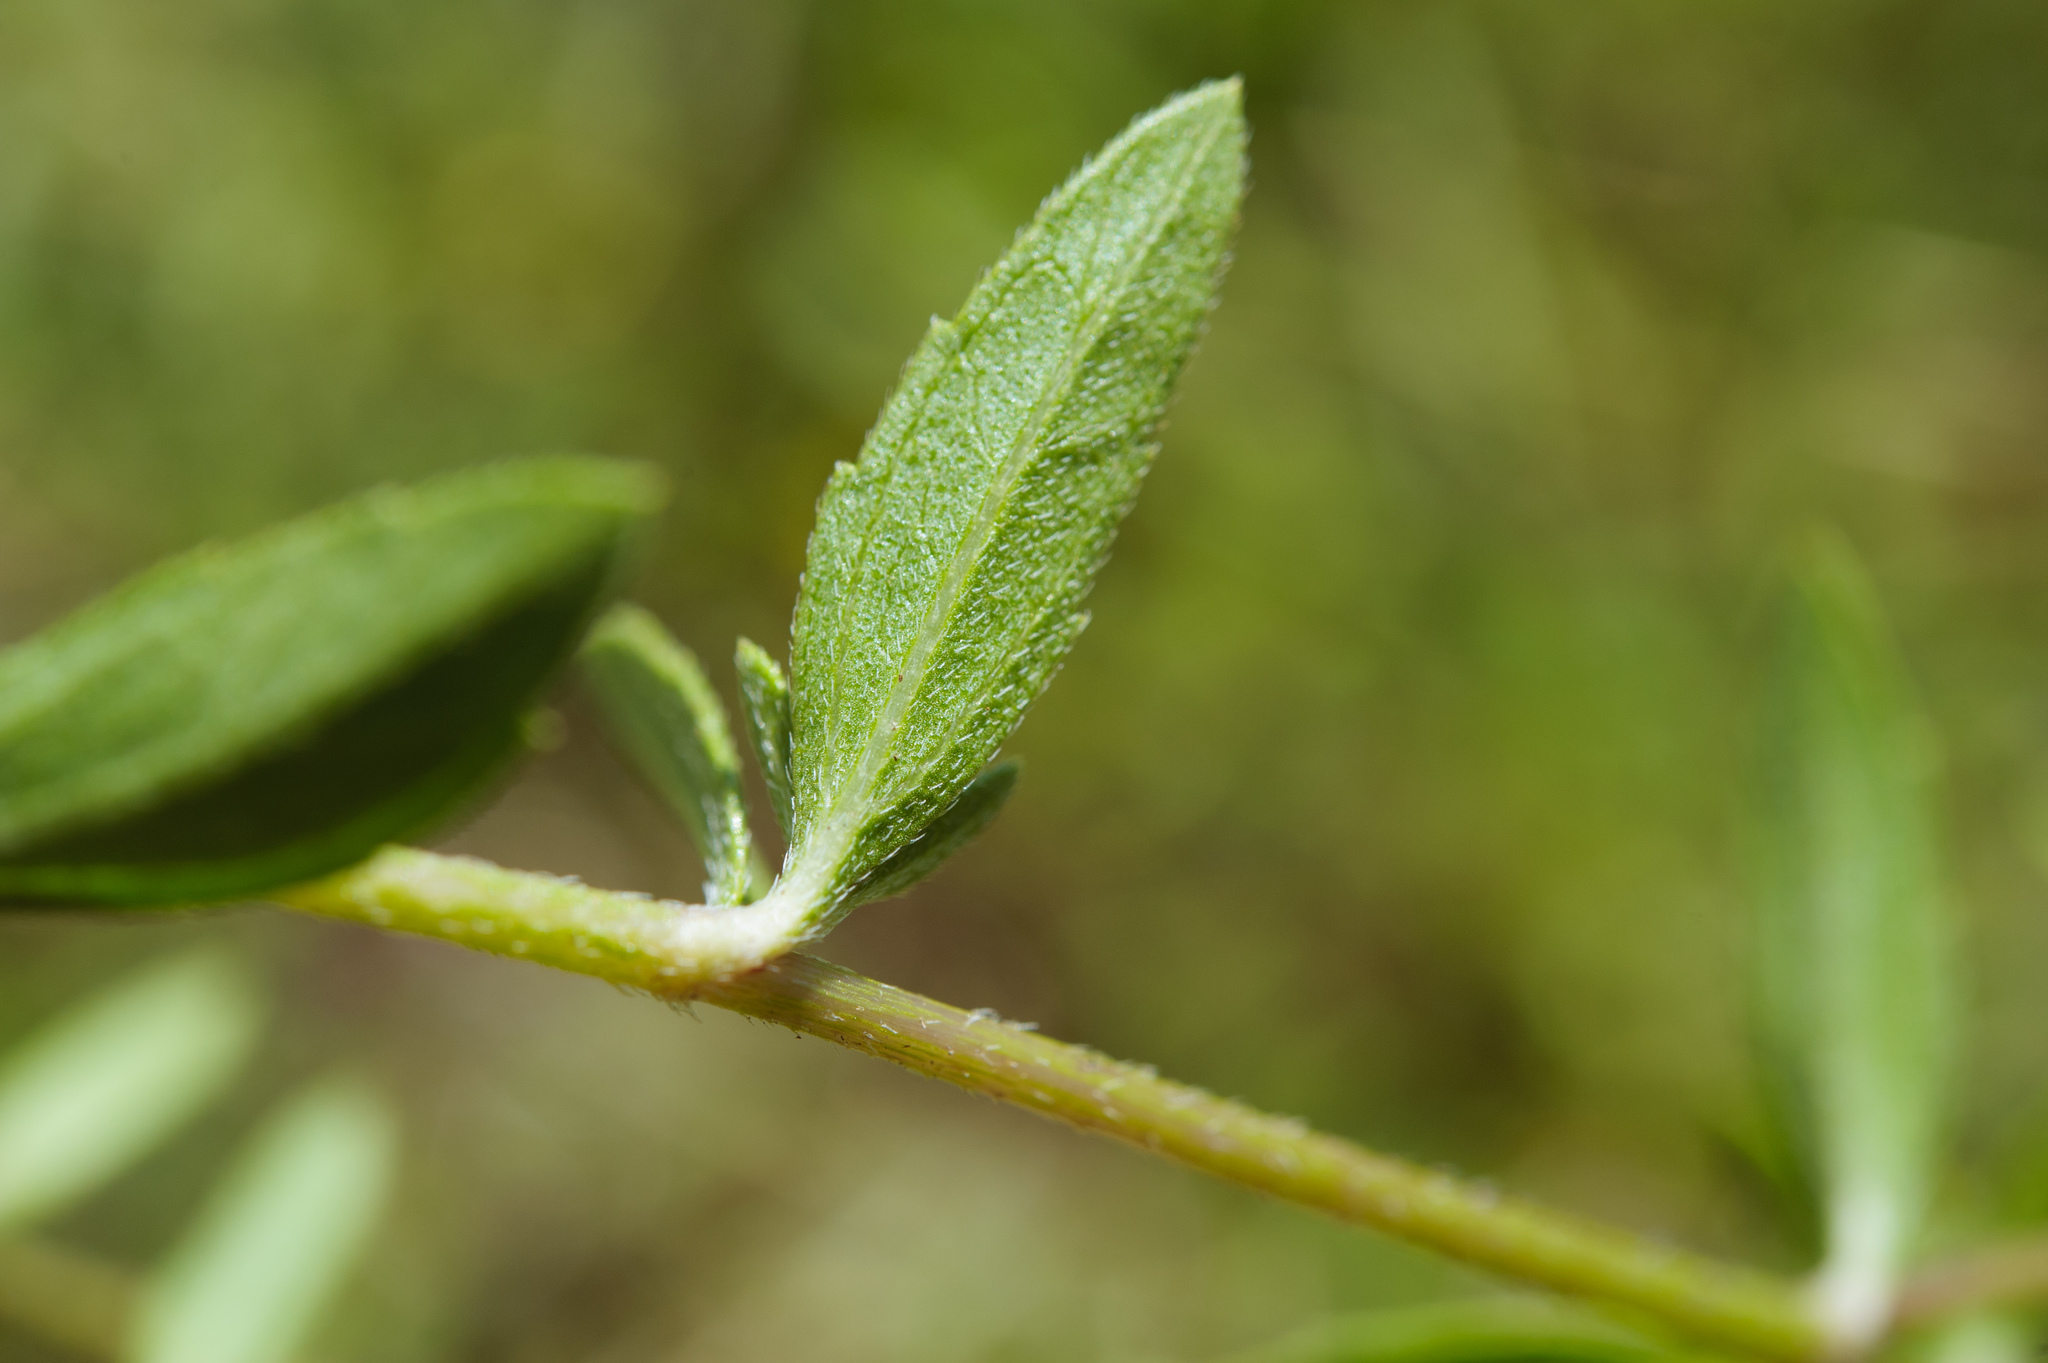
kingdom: Plantae
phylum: Tracheophyta
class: Magnoliopsida
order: Asterales
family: Asteraceae
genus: Melanthera
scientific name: Melanthera prostrata
